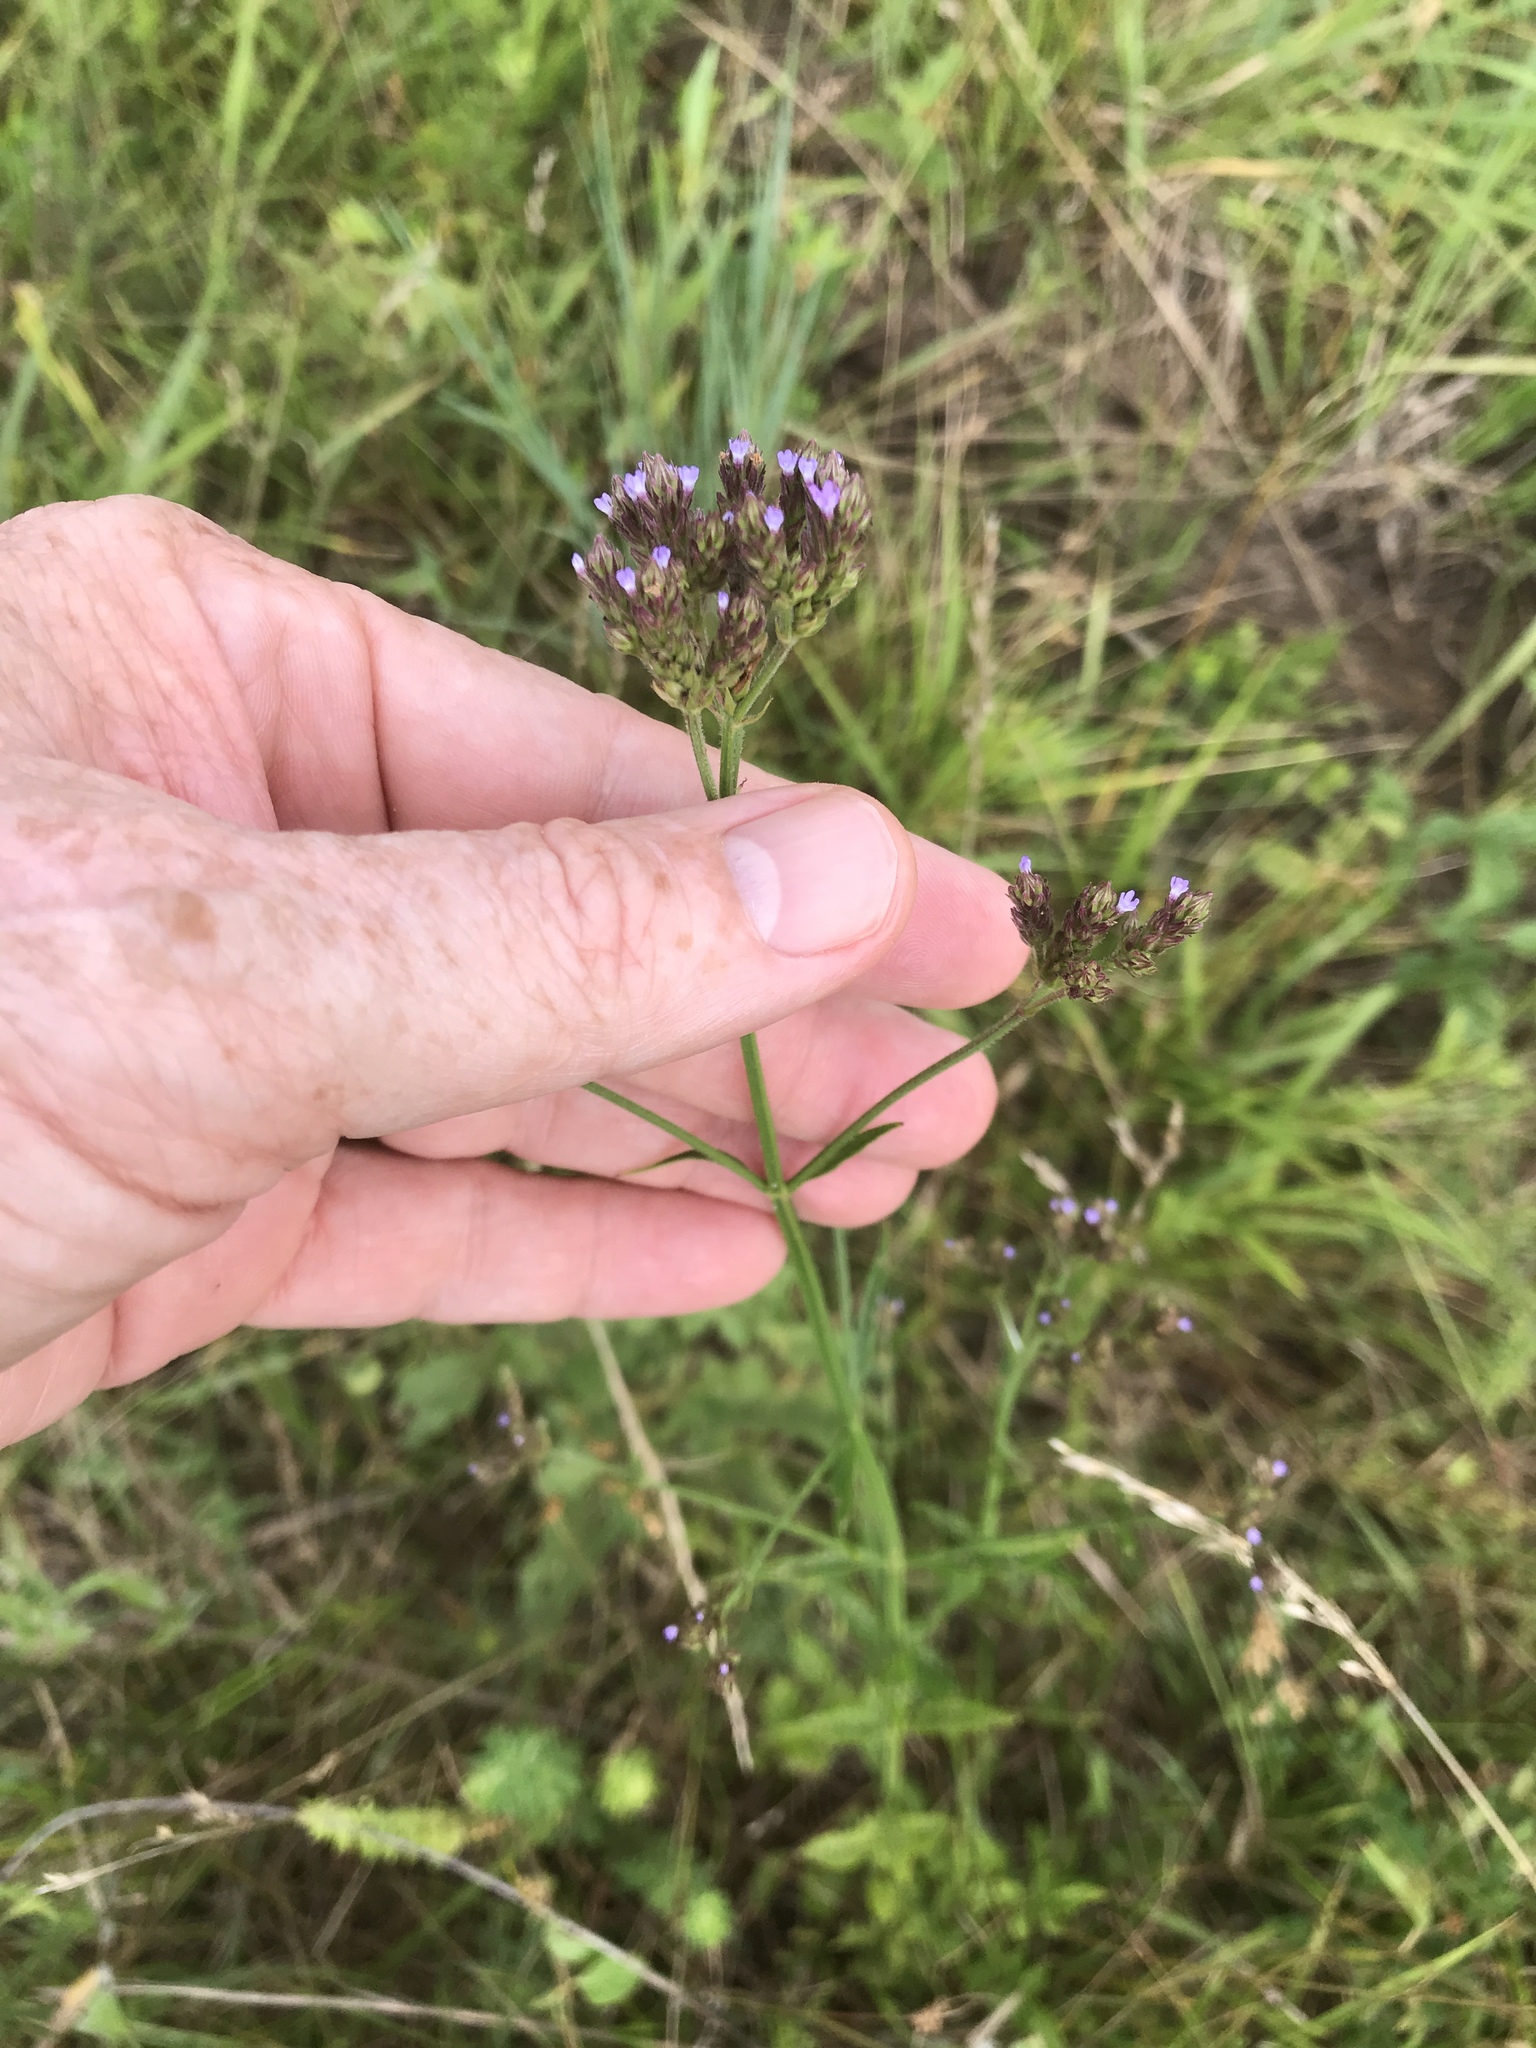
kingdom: Plantae
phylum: Tracheophyta
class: Magnoliopsida
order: Lamiales
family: Verbenaceae
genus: Verbena
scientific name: Verbena brasiliensis
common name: Brazilian vervain
